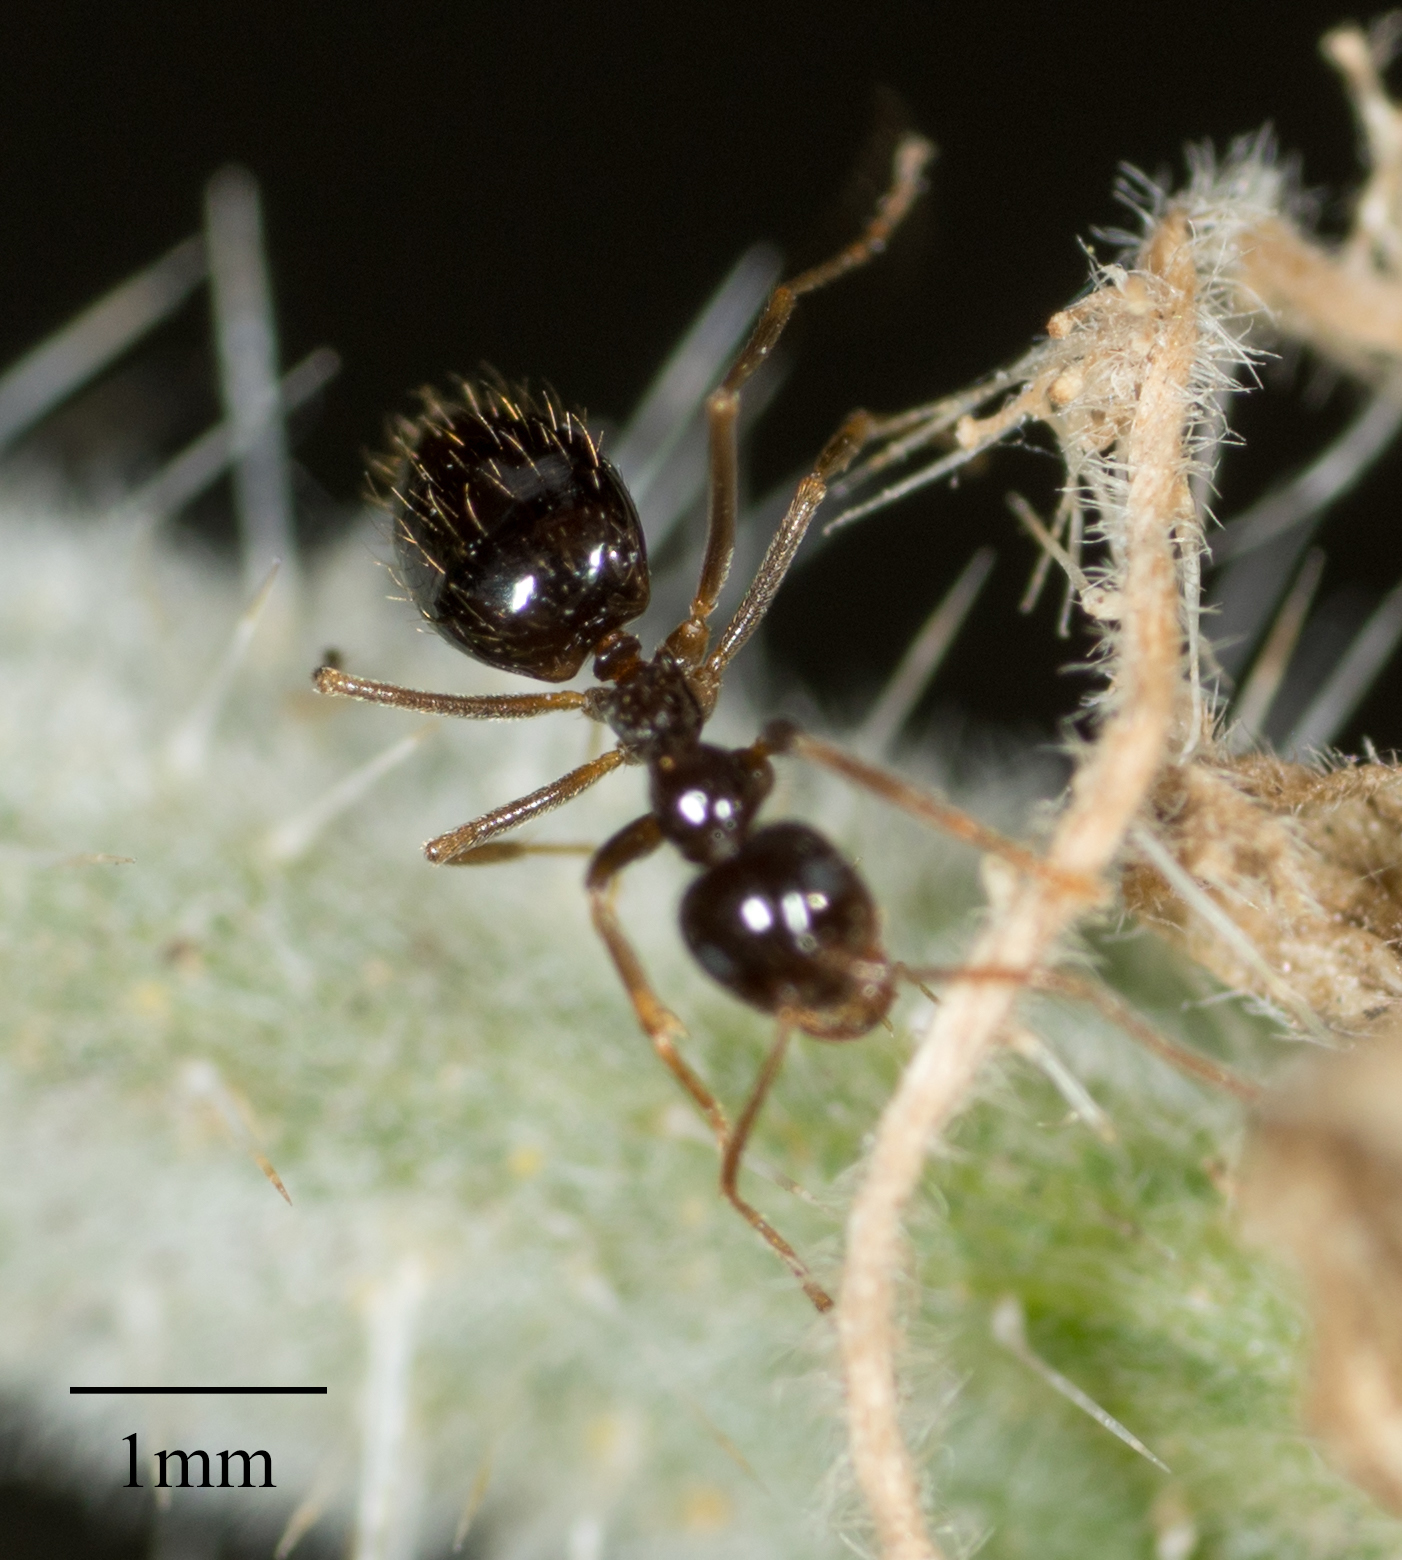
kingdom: Animalia
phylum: Arthropoda
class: Insecta
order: Hymenoptera
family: Formicidae
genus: Prenolepis
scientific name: Prenolepis imparis
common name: Small honey ant
